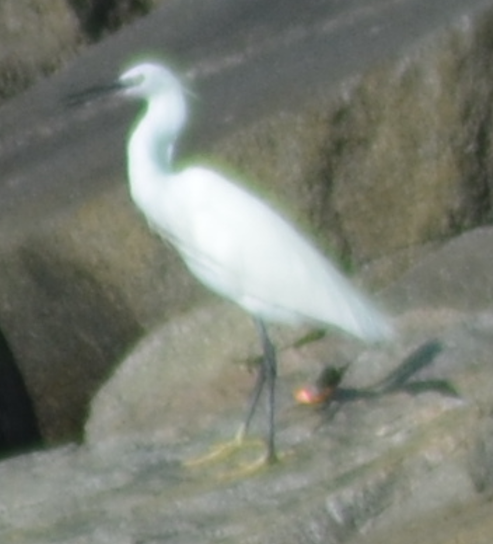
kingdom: Animalia
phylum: Chordata
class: Aves
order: Pelecaniformes
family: Ardeidae
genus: Egretta
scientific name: Egretta garzetta
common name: Little egret
